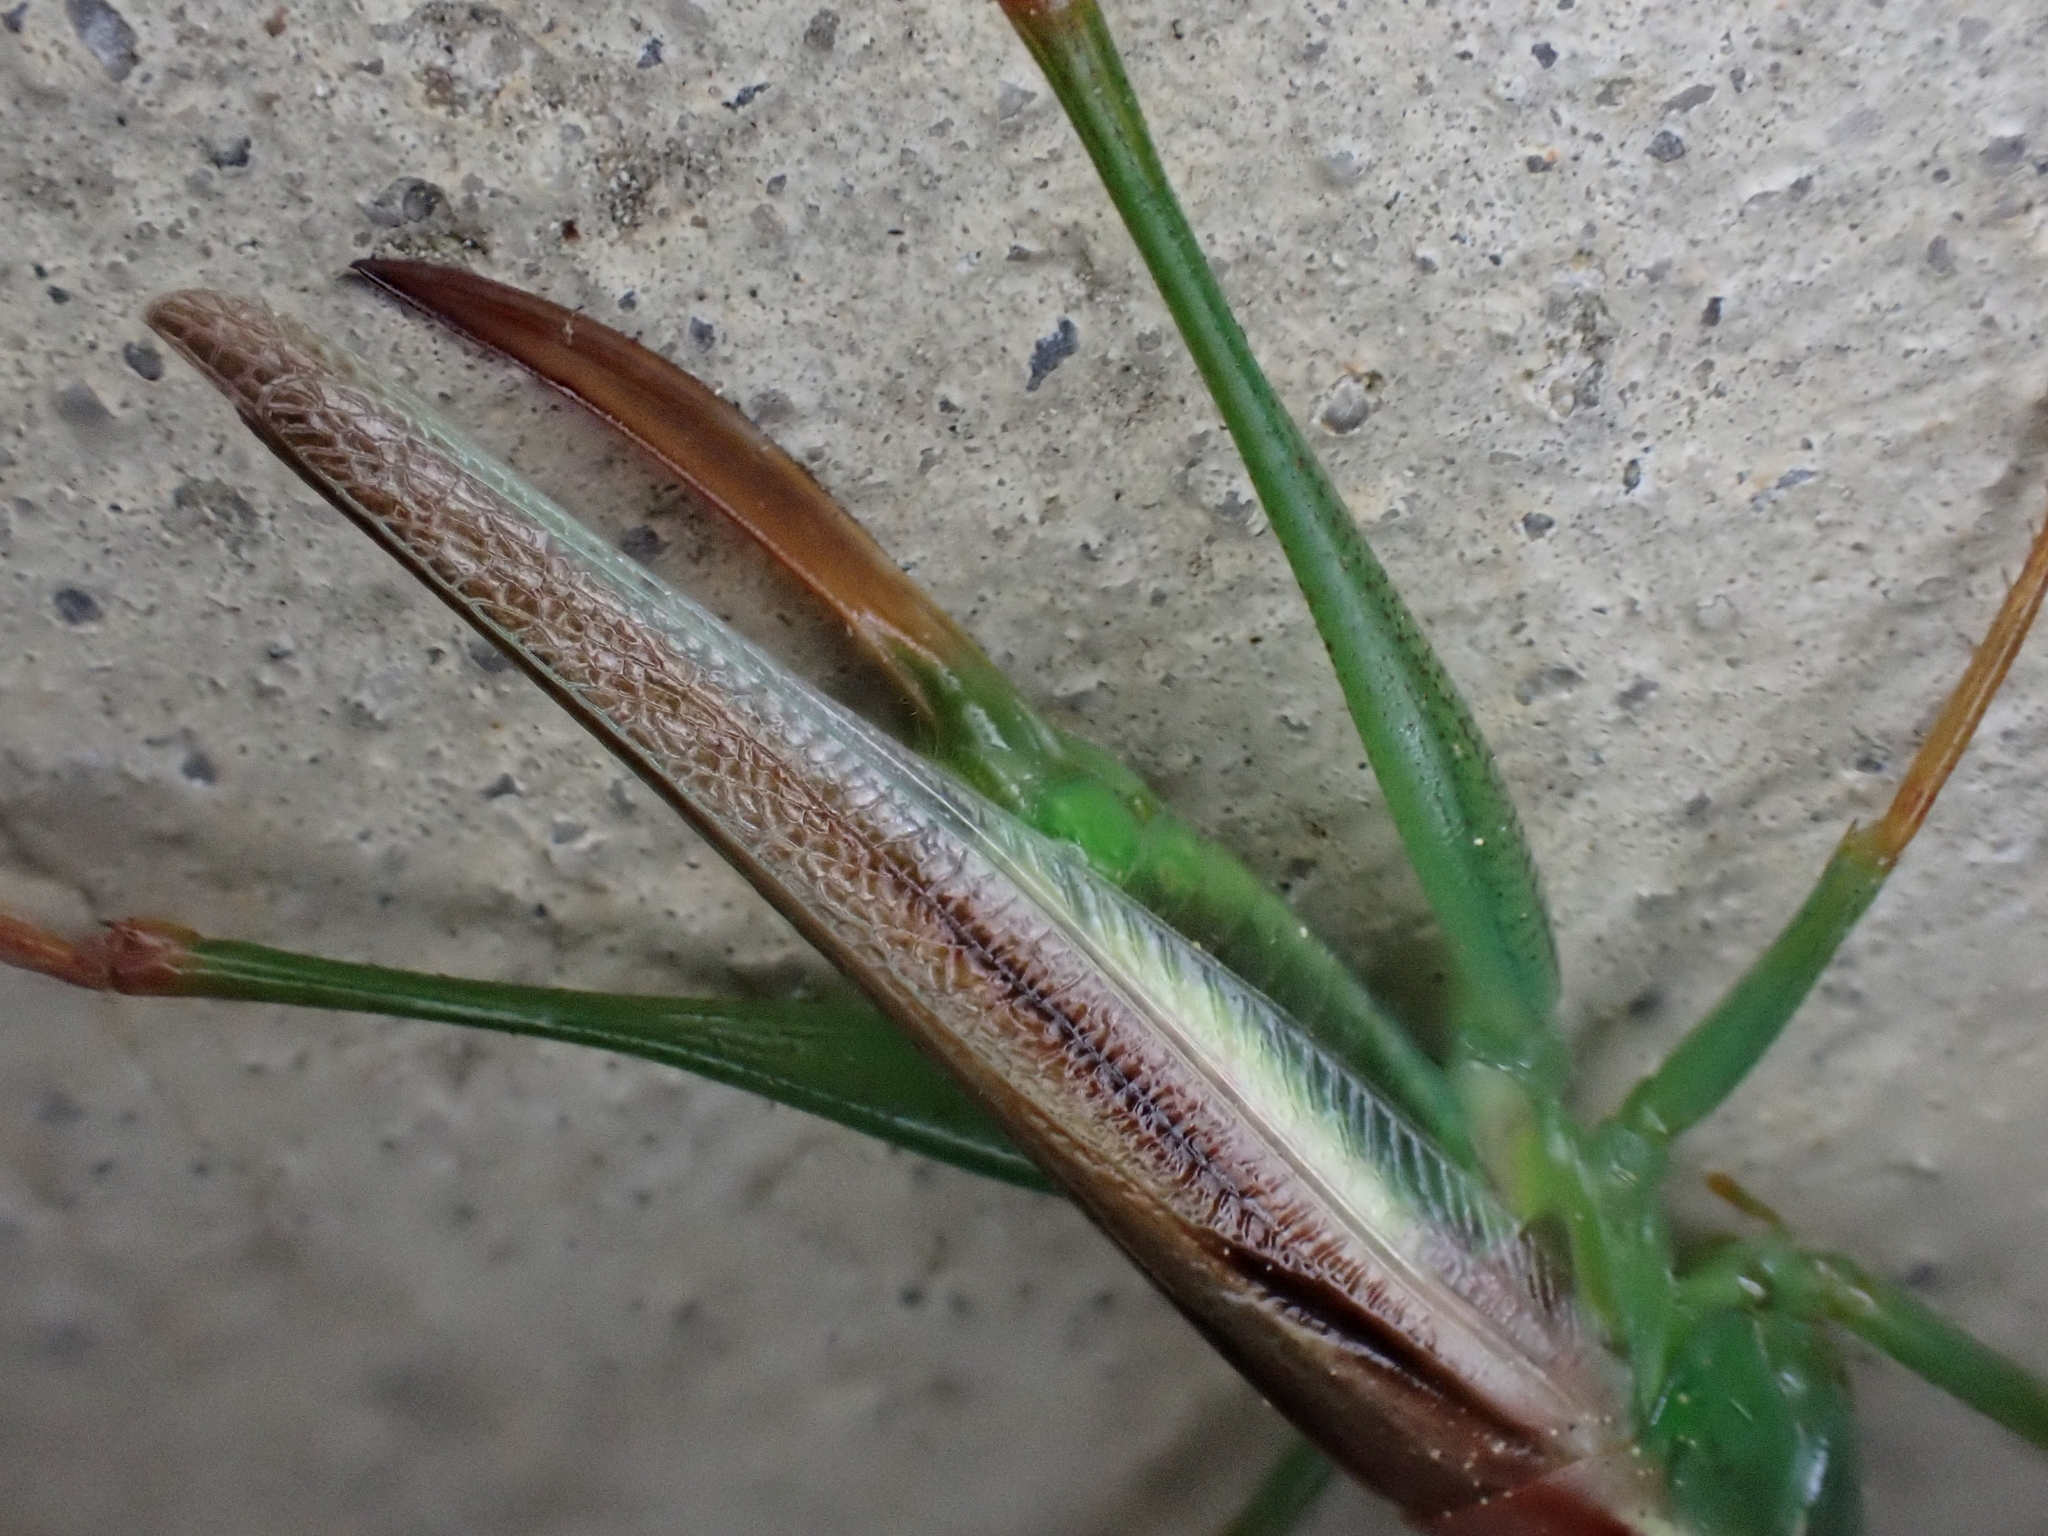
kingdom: Animalia
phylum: Arthropoda
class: Insecta
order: Orthoptera
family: Tettigoniidae
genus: Orchelimum
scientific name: Orchelimum minor
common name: Lesser pine meadow katydid
